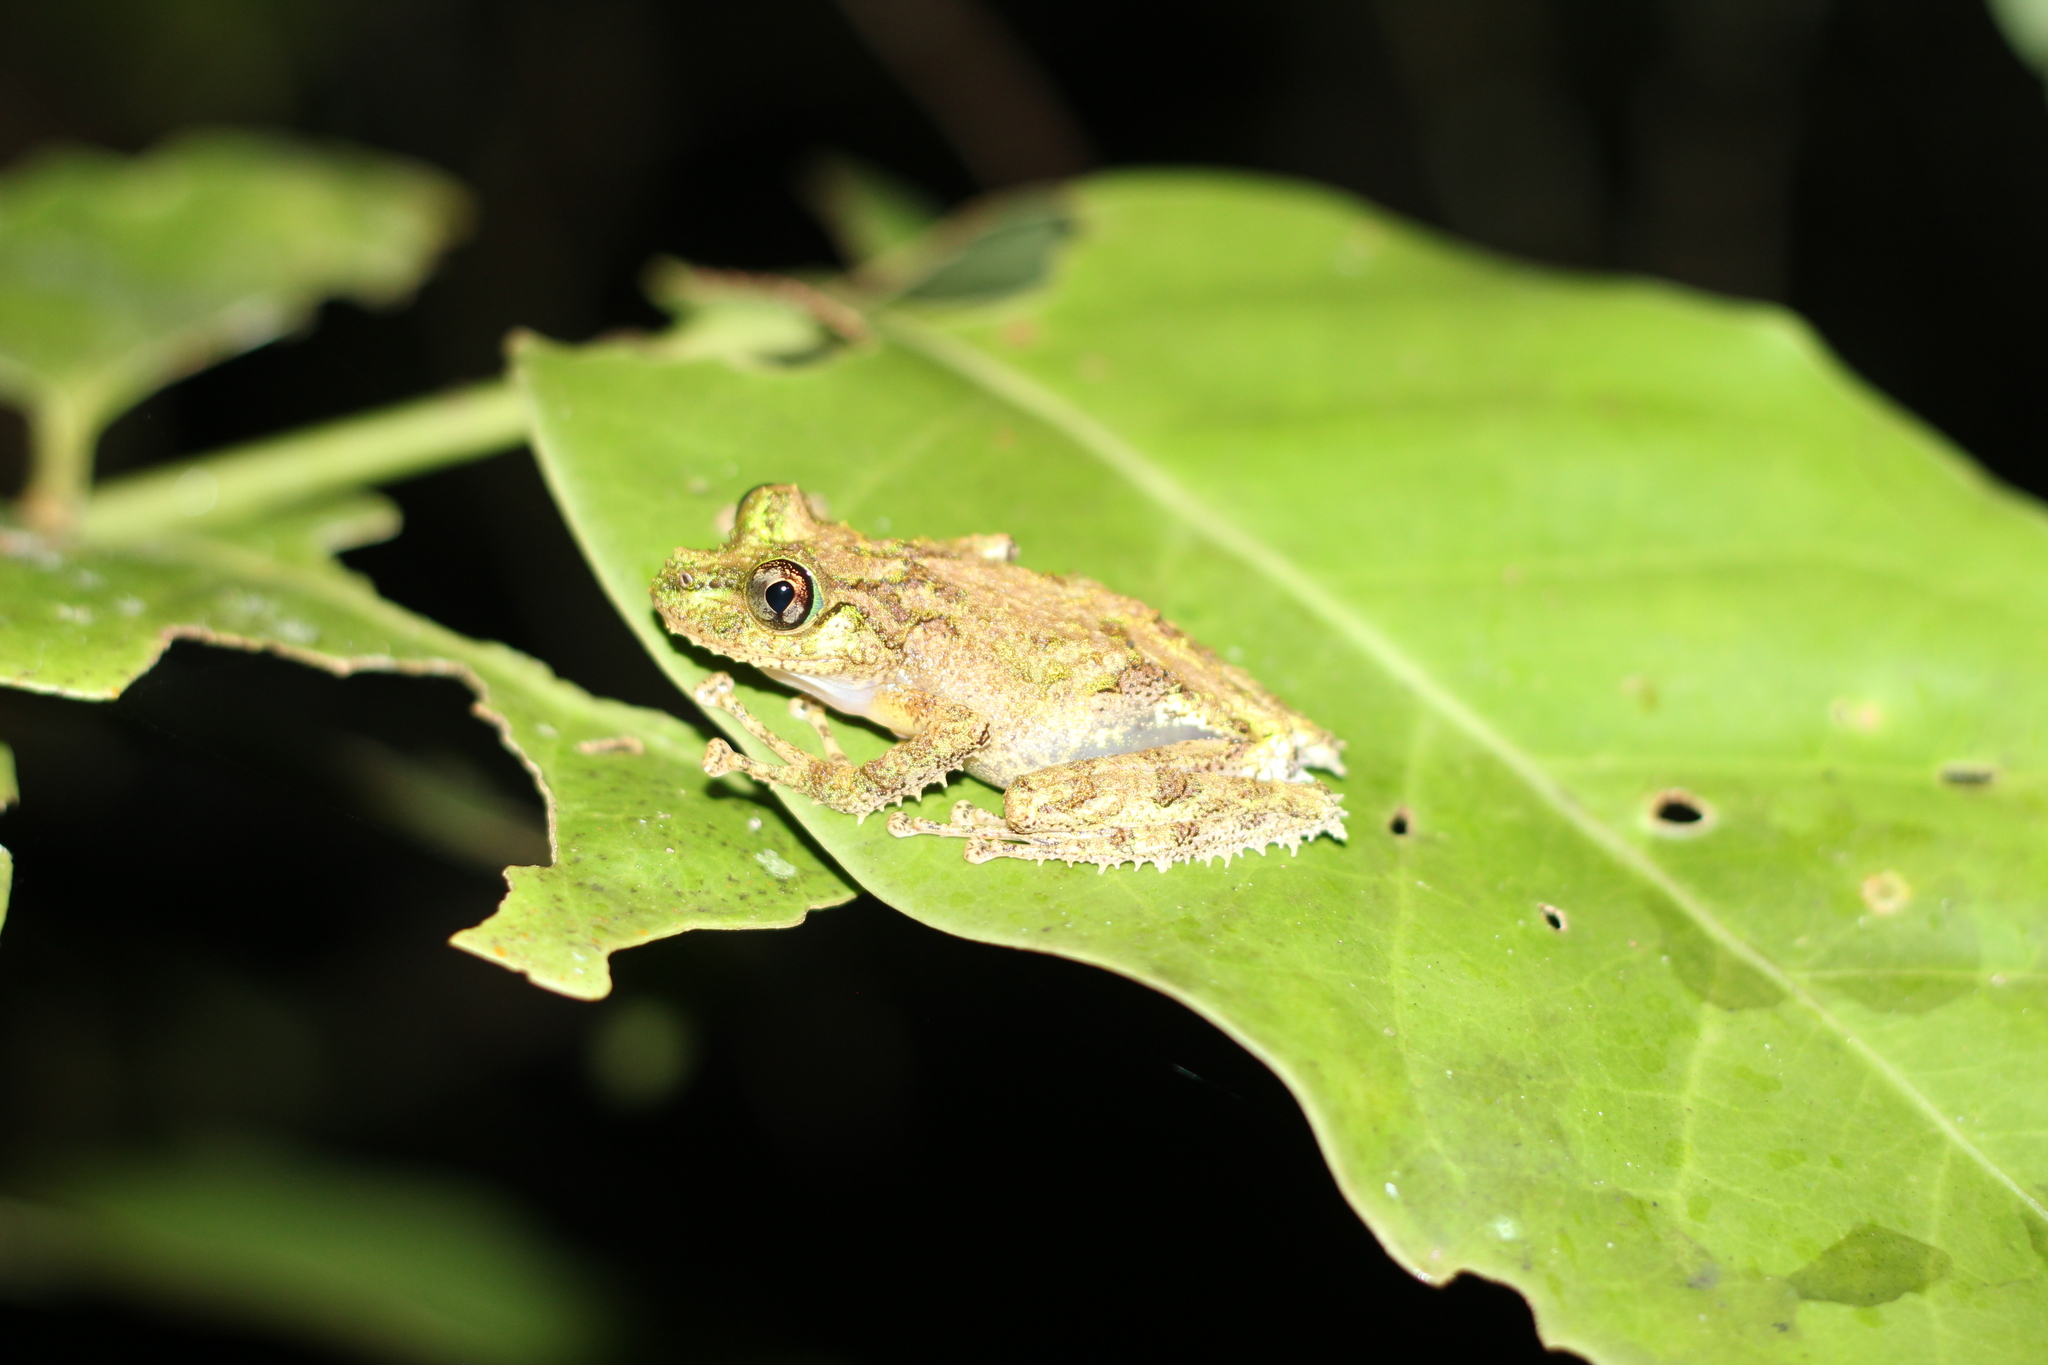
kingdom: Animalia
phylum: Chordata
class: Amphibia
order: Anura
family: Mantellidae
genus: Spinomantis
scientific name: Spinomantis aglavei
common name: Anamalozoatra madagascar frog
